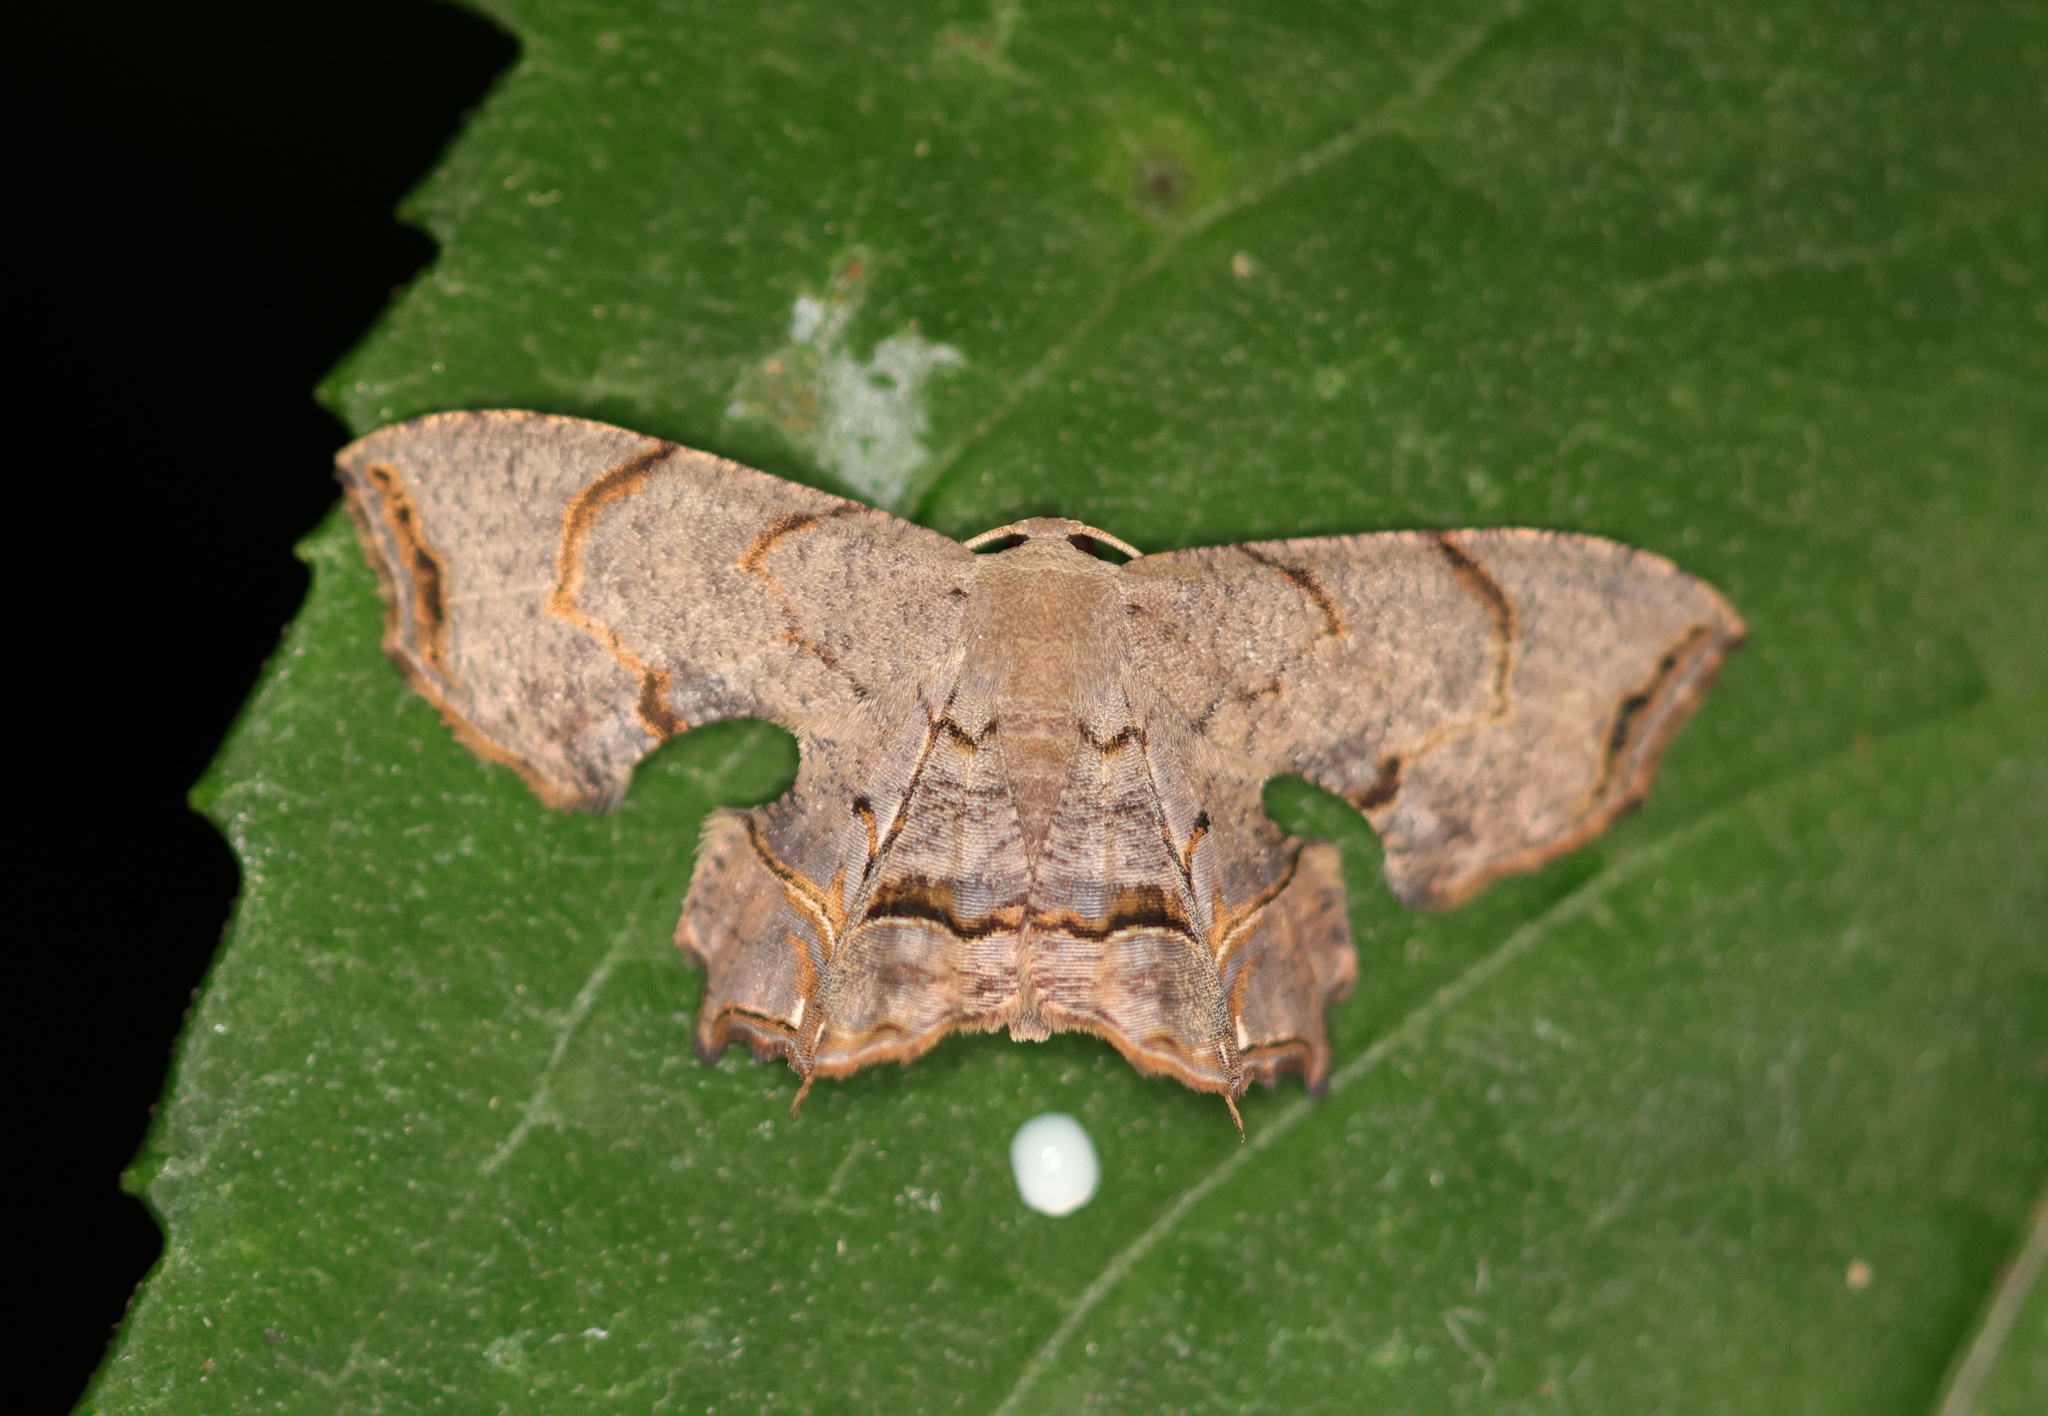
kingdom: Animalia
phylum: Arthropoda
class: Insecta
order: Lepidoptera
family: Uraniidae
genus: Dysaethria
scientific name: Dysaethria moza
